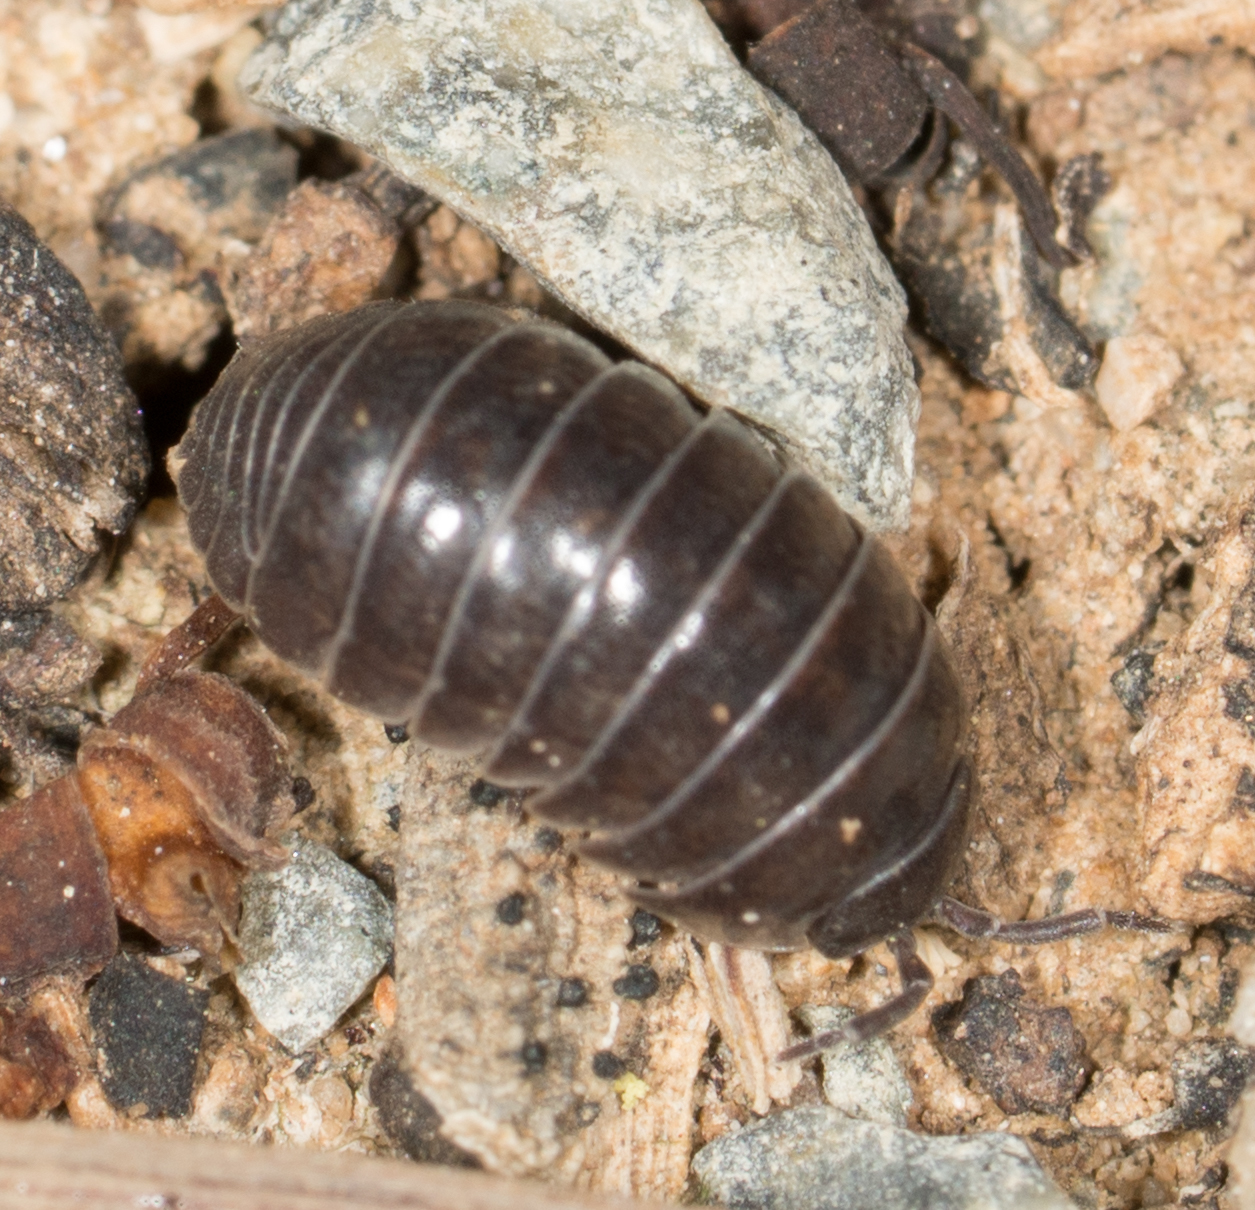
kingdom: Animalia
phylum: Arthropoda
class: Malacostraca
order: Isopoda
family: Armadillidiidae
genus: Armadillidium
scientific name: Armadillidium vulgare
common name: Common pill woodlouse
